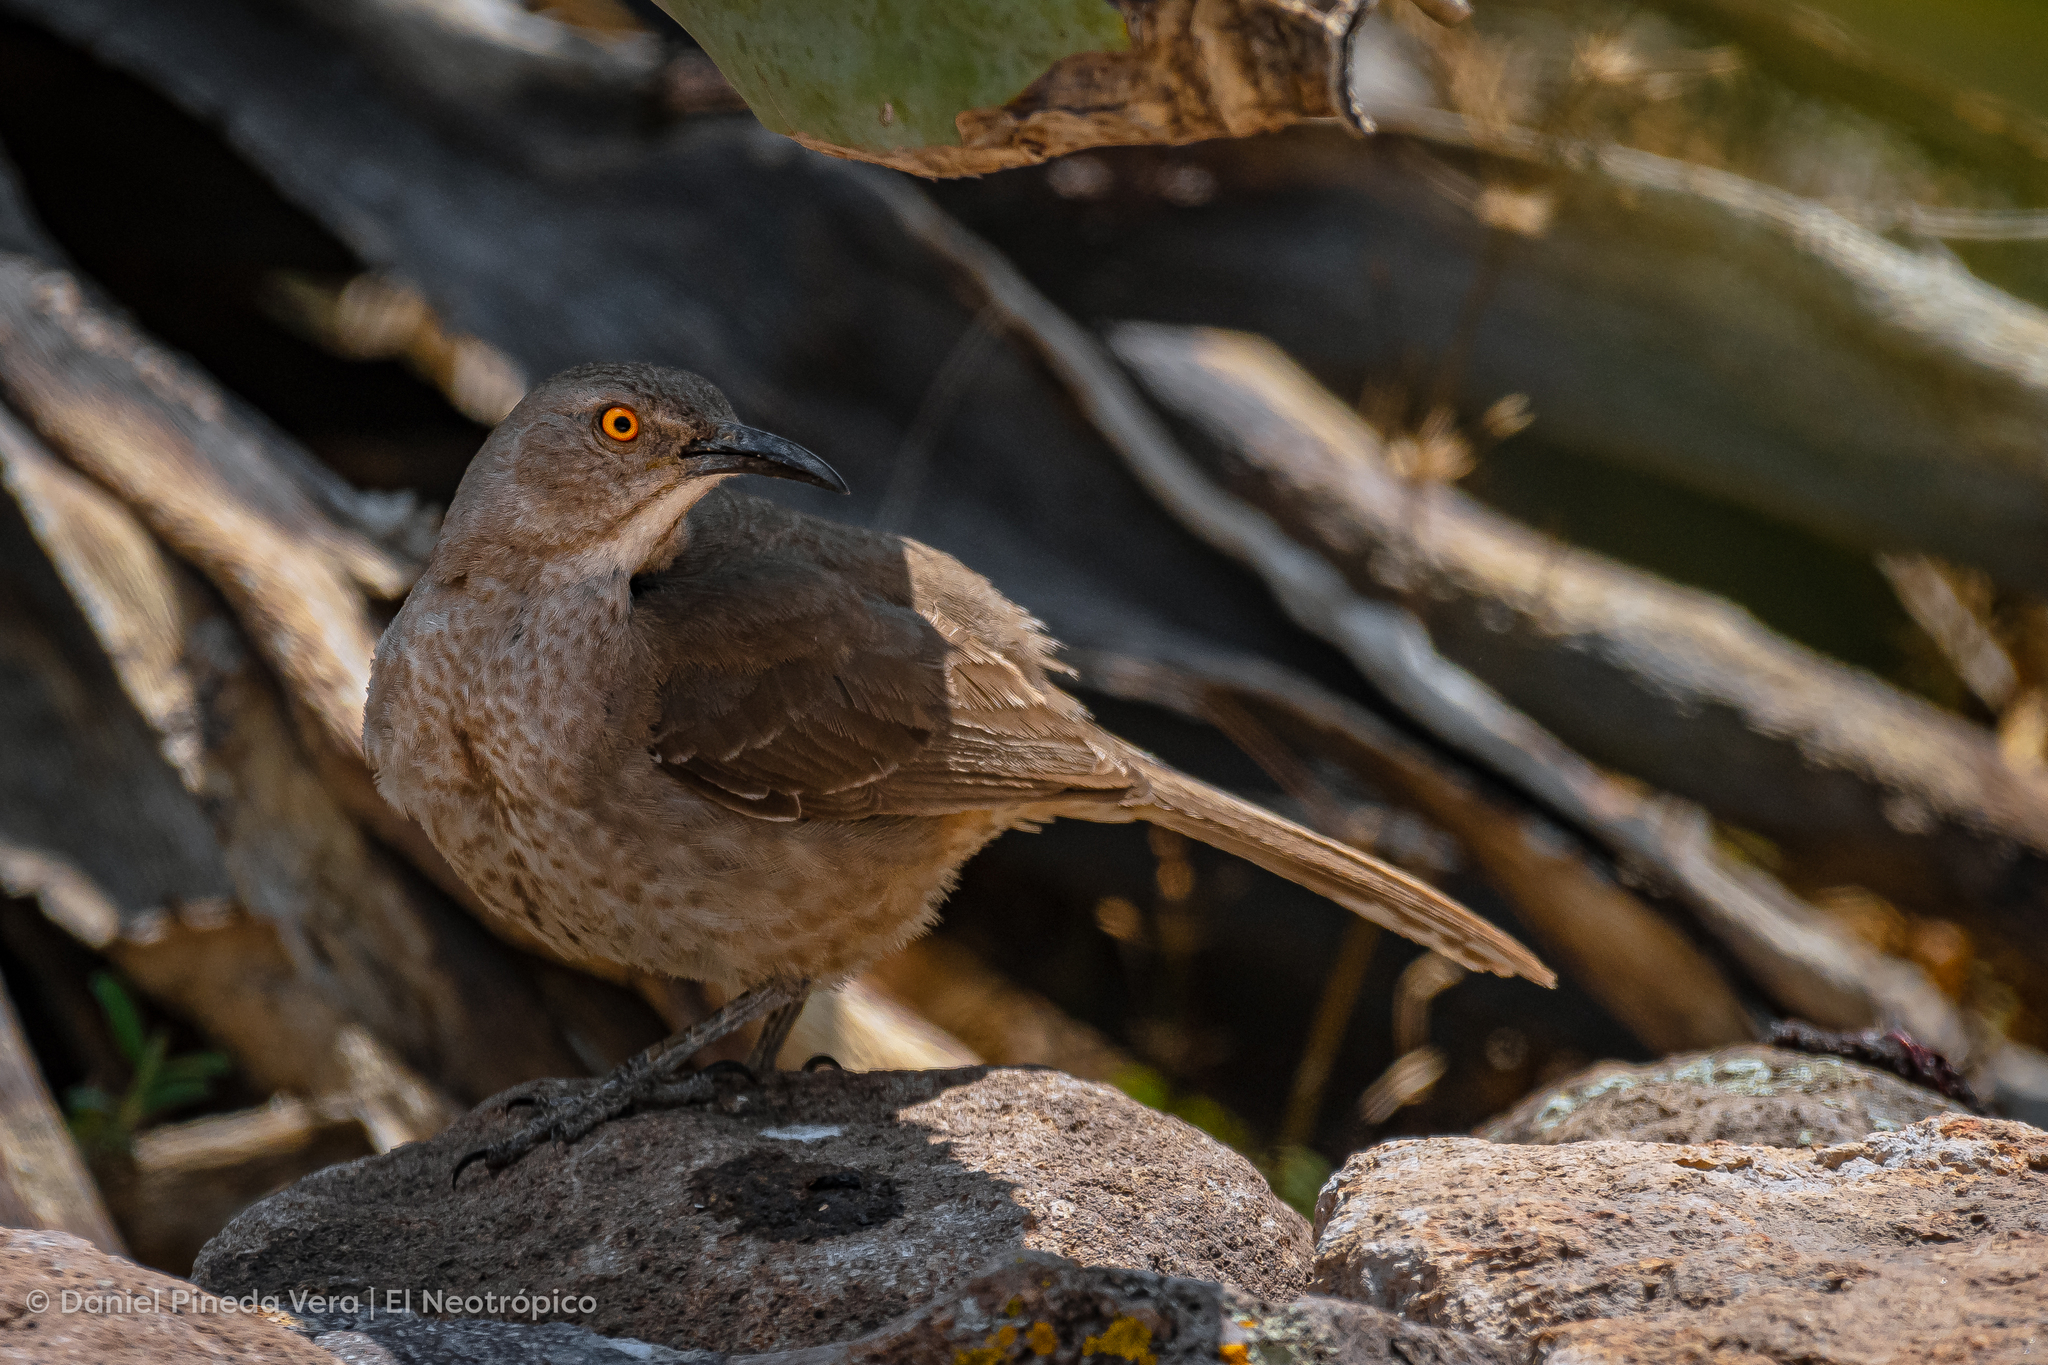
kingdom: Animalia
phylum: Chordata
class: Aves
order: Passeriformes
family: Mimidae
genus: Toxostoma
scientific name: Toxostoma curvirostre
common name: Curve-billed thrasher
